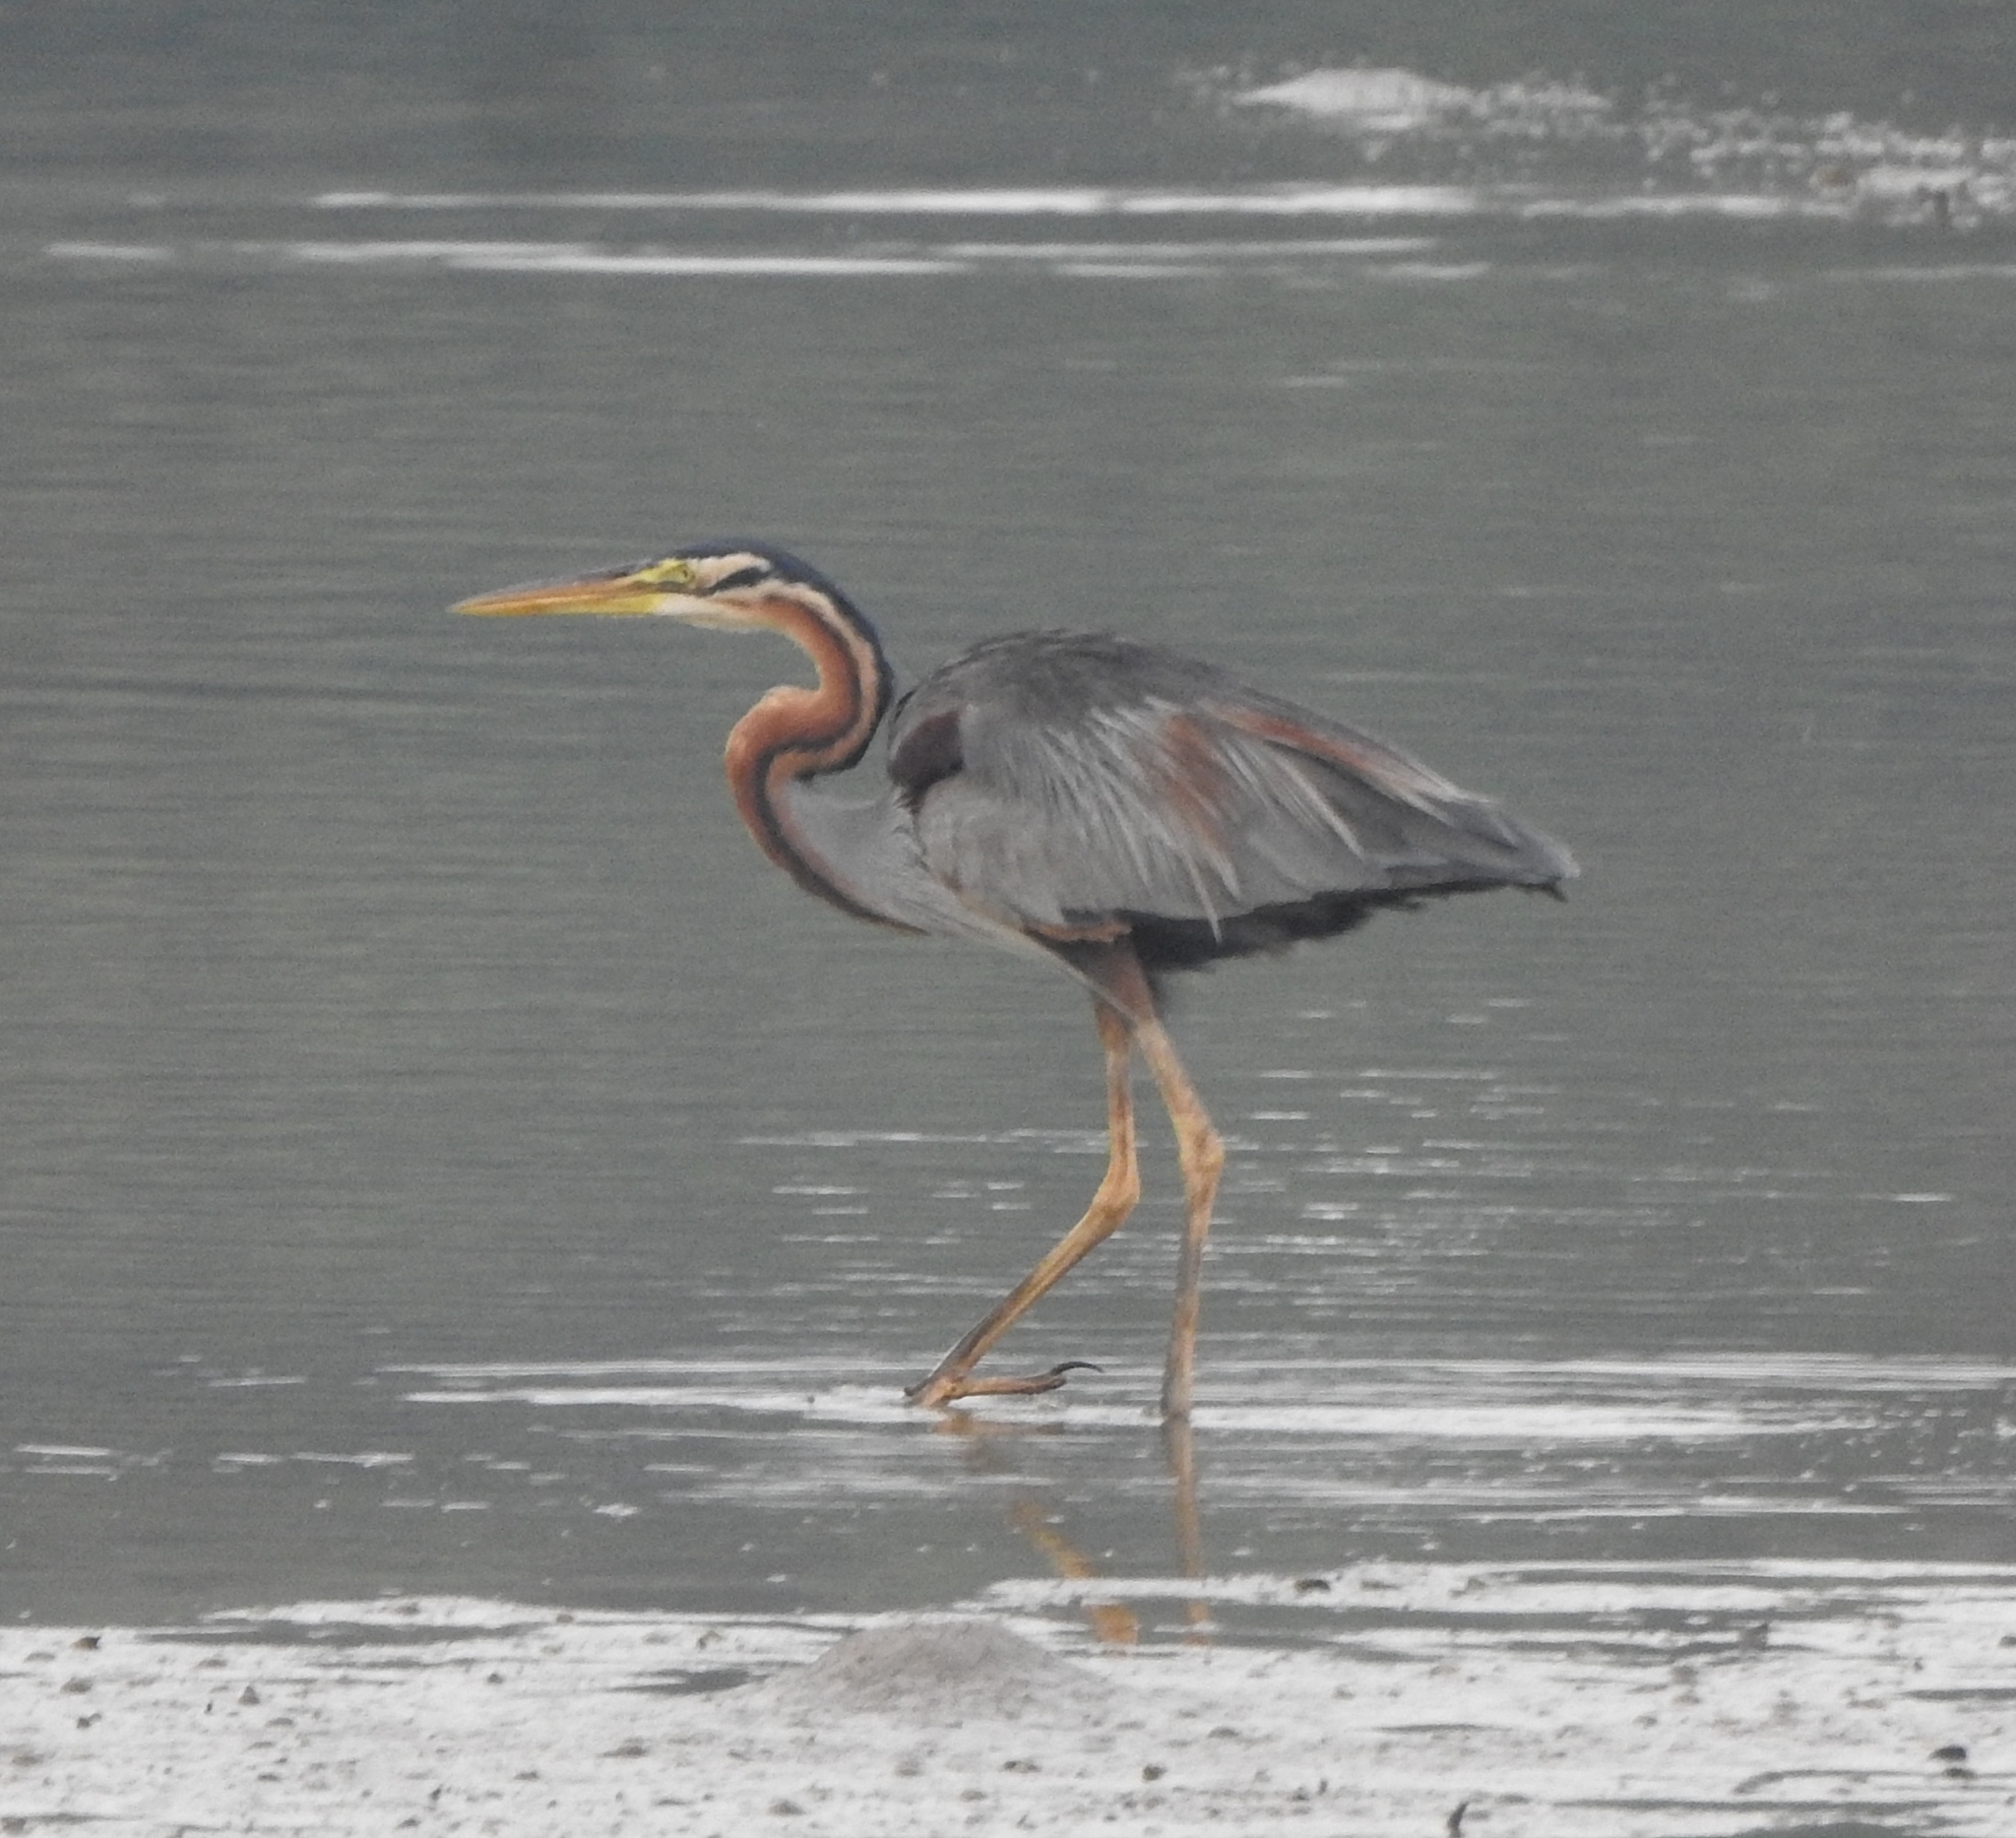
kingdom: Animalia
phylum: Chordata
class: Aves
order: Pelecaniformes
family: Ardeidae
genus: Ardea
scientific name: Ardea purpurea
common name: Purple heron
